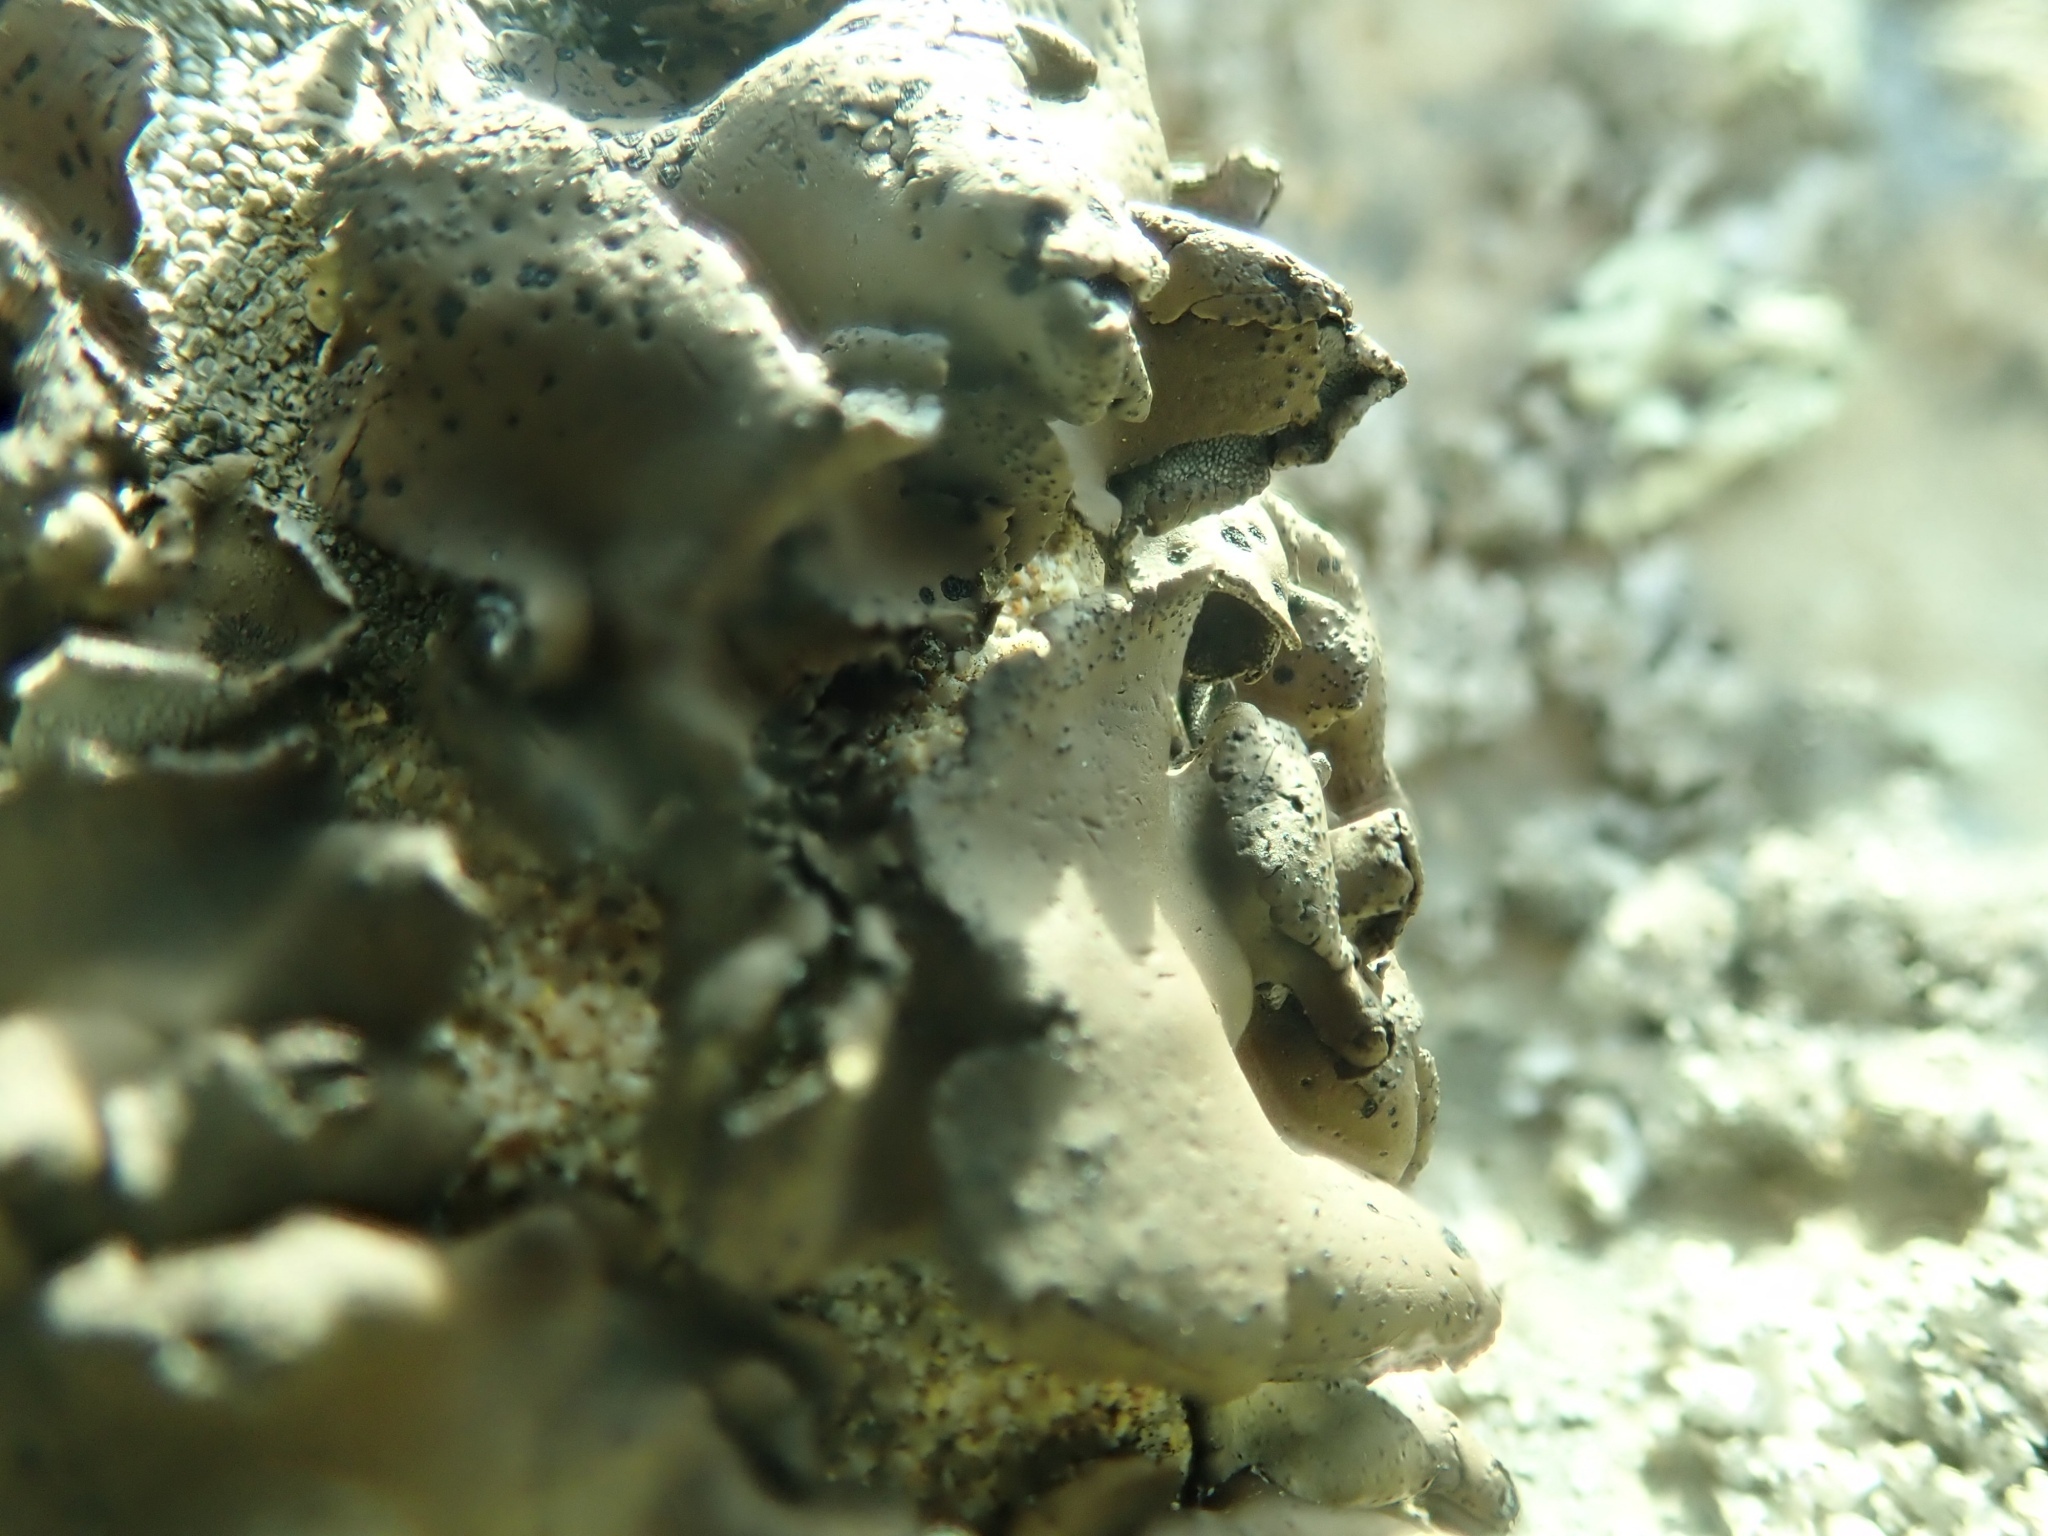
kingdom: Fungi
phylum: Ascomycota
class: Lecanoromycetes
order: Umbilicariales
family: Umbilicariaceae
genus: Umbilicaria
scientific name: Umbilicaria phaea
